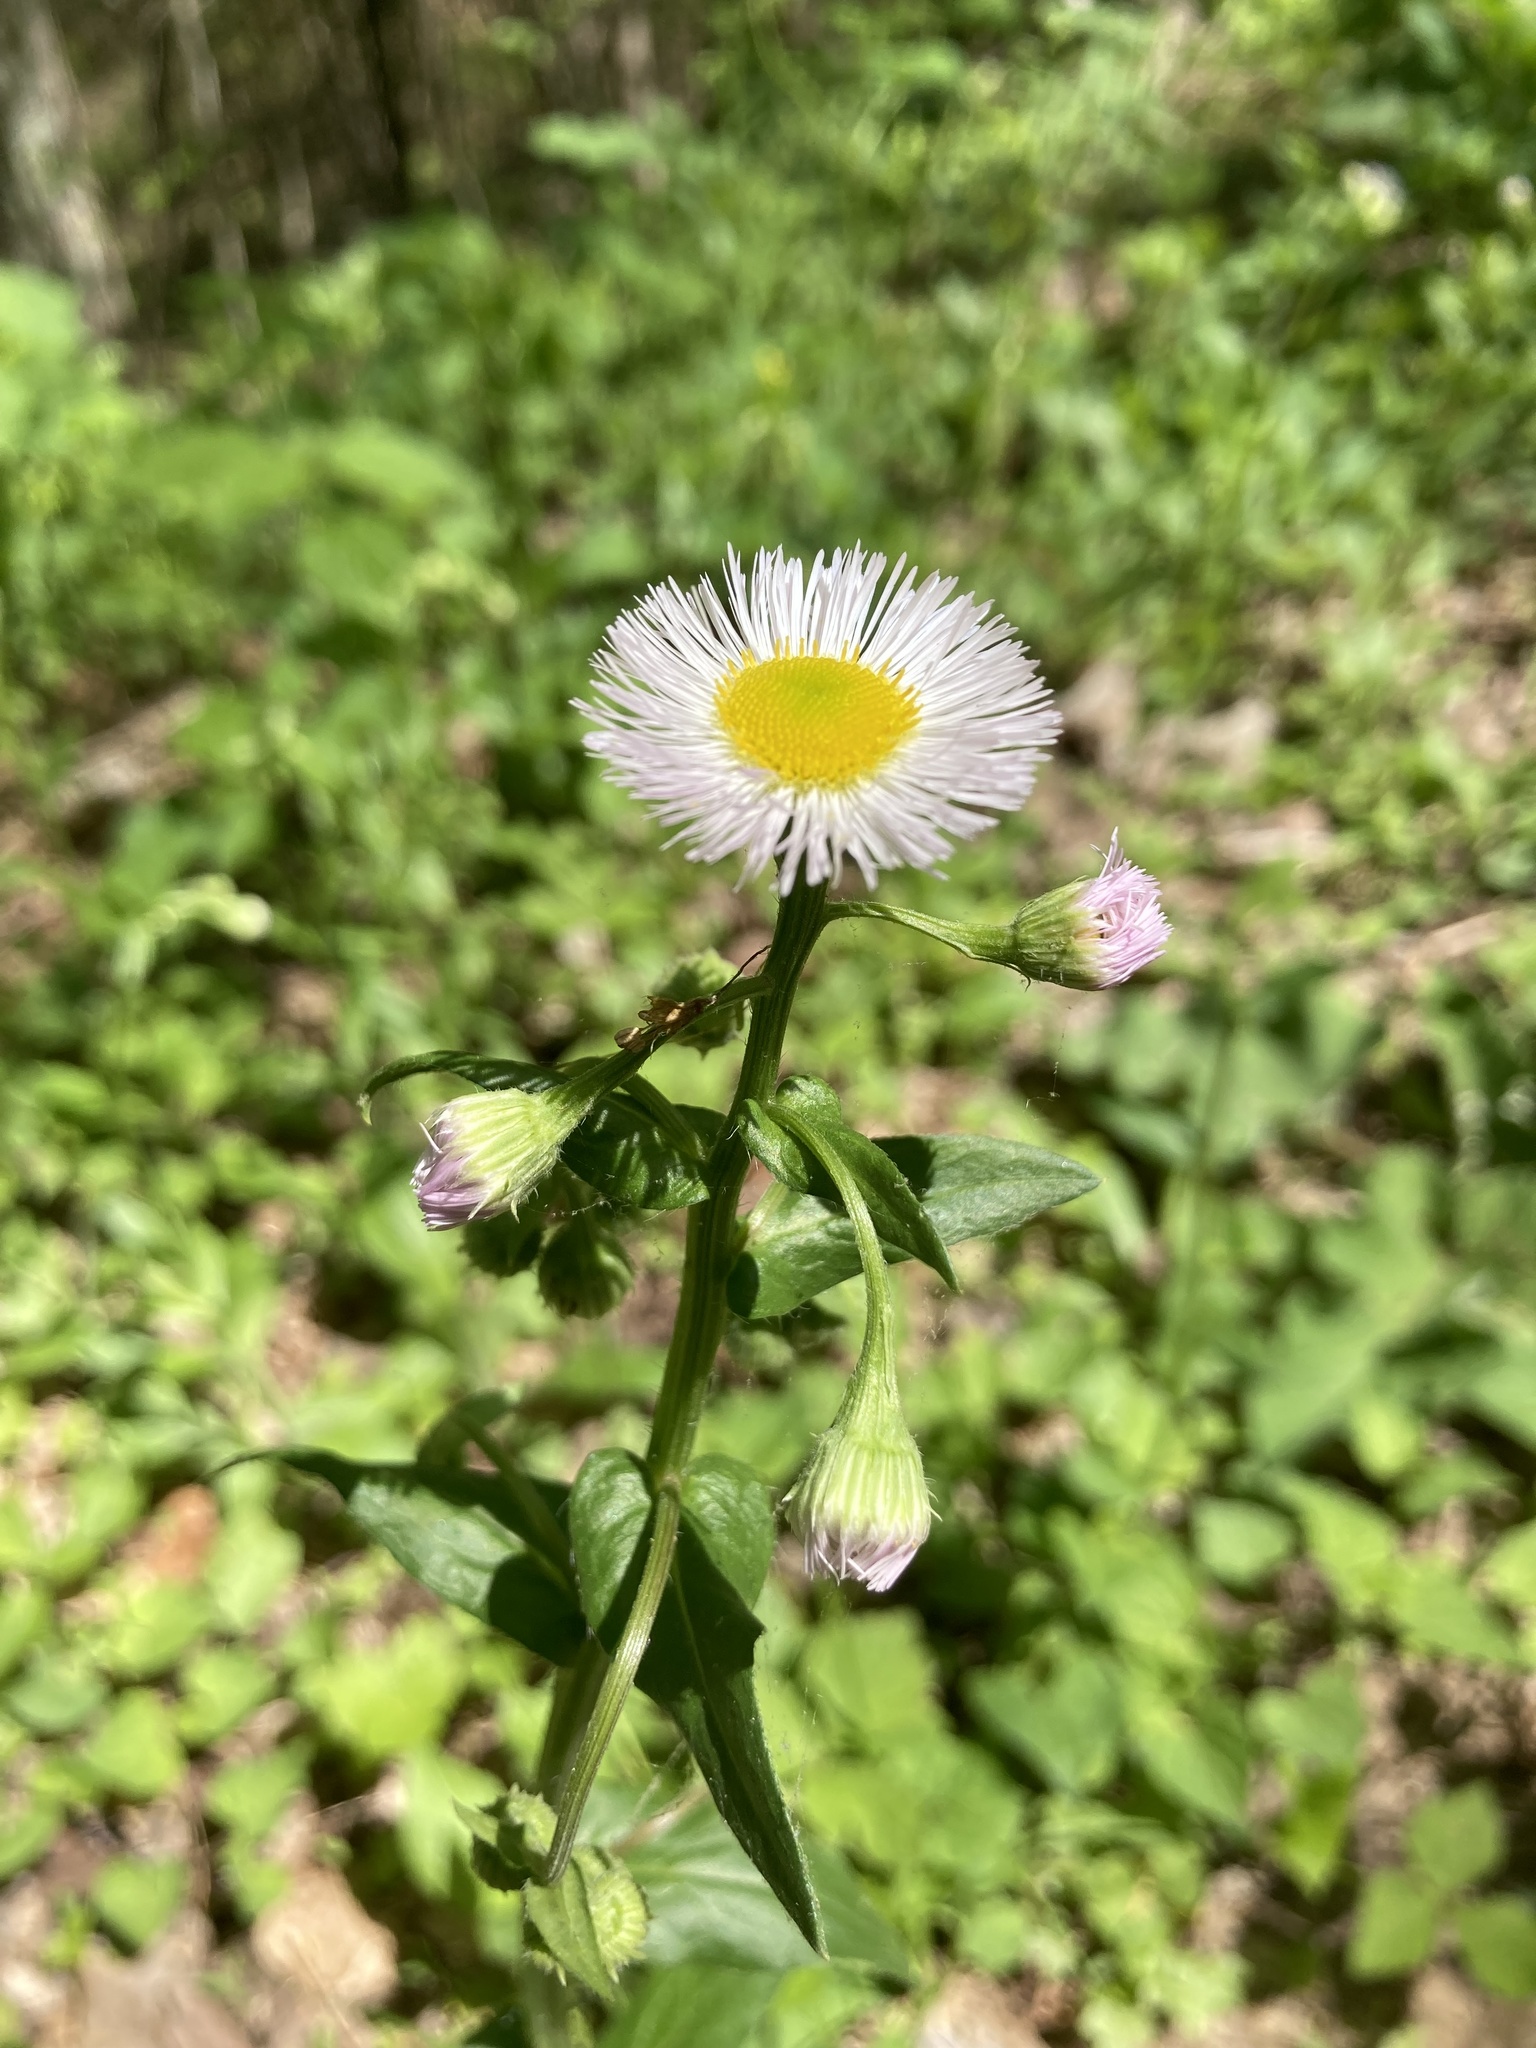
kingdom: Plantae
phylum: Tracheophyta
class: Magnoliopsida
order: Asterales
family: Asteraceae
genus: Erigeron
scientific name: Erigeron philadelphicus
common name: Robin's-plantain
